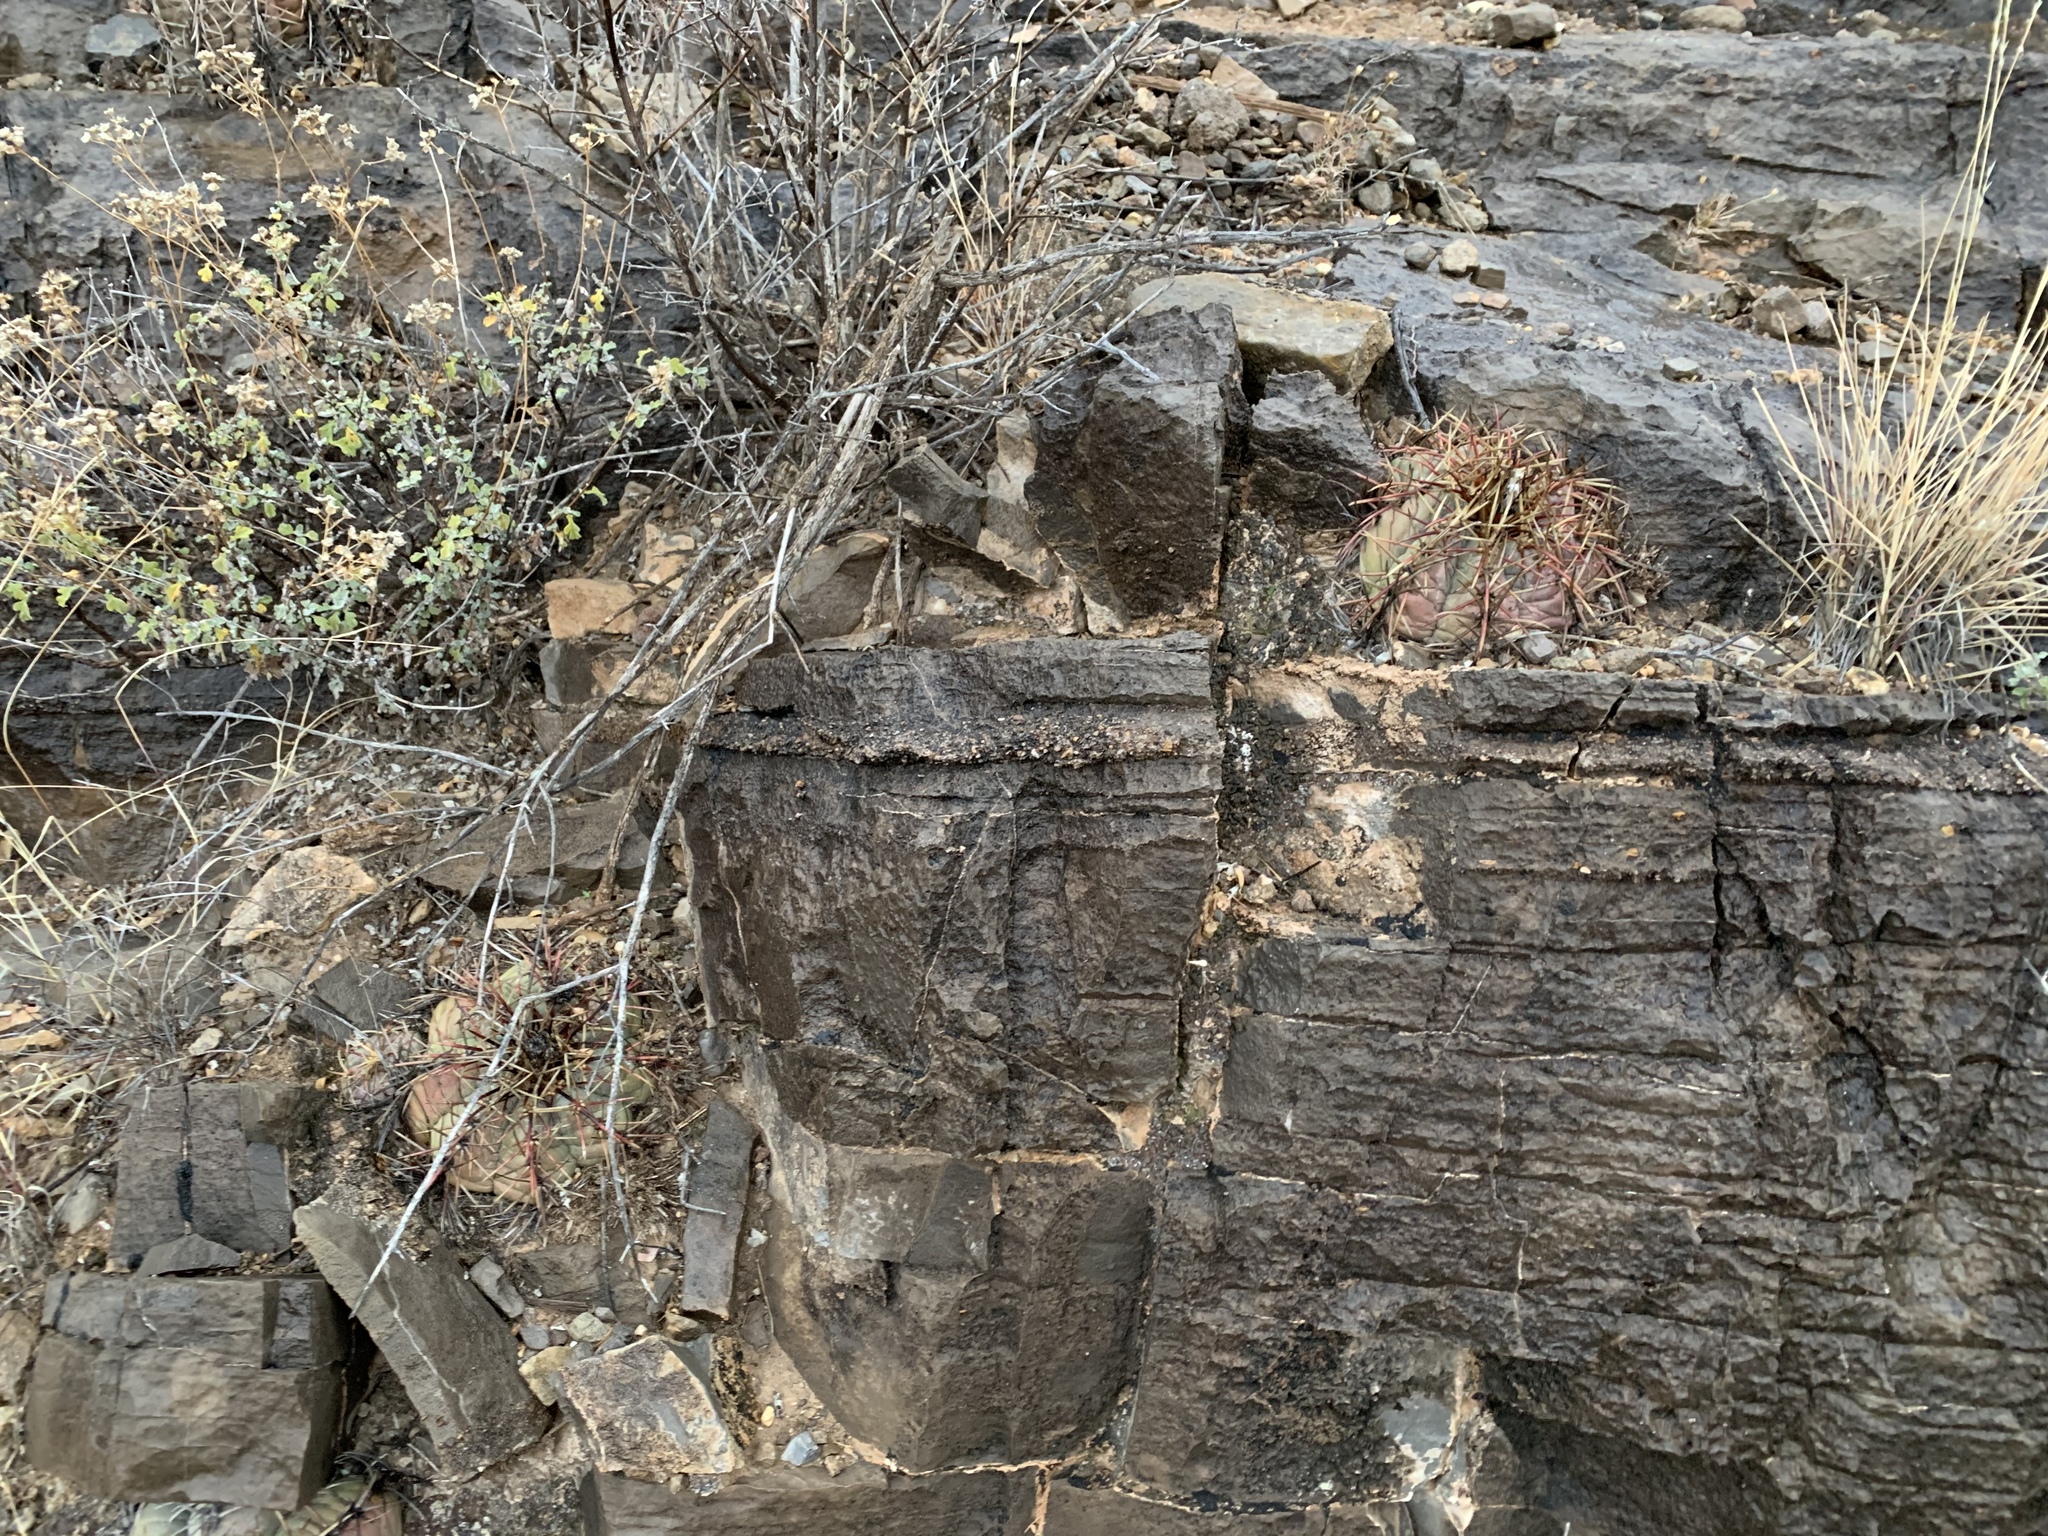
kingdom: Plantae
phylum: Tracheophyta
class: Magnoliopsida
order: Caryophyllales
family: Cactaceae
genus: Echinocactus
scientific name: Echinocactus horizonthalonius
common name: Devilshead
